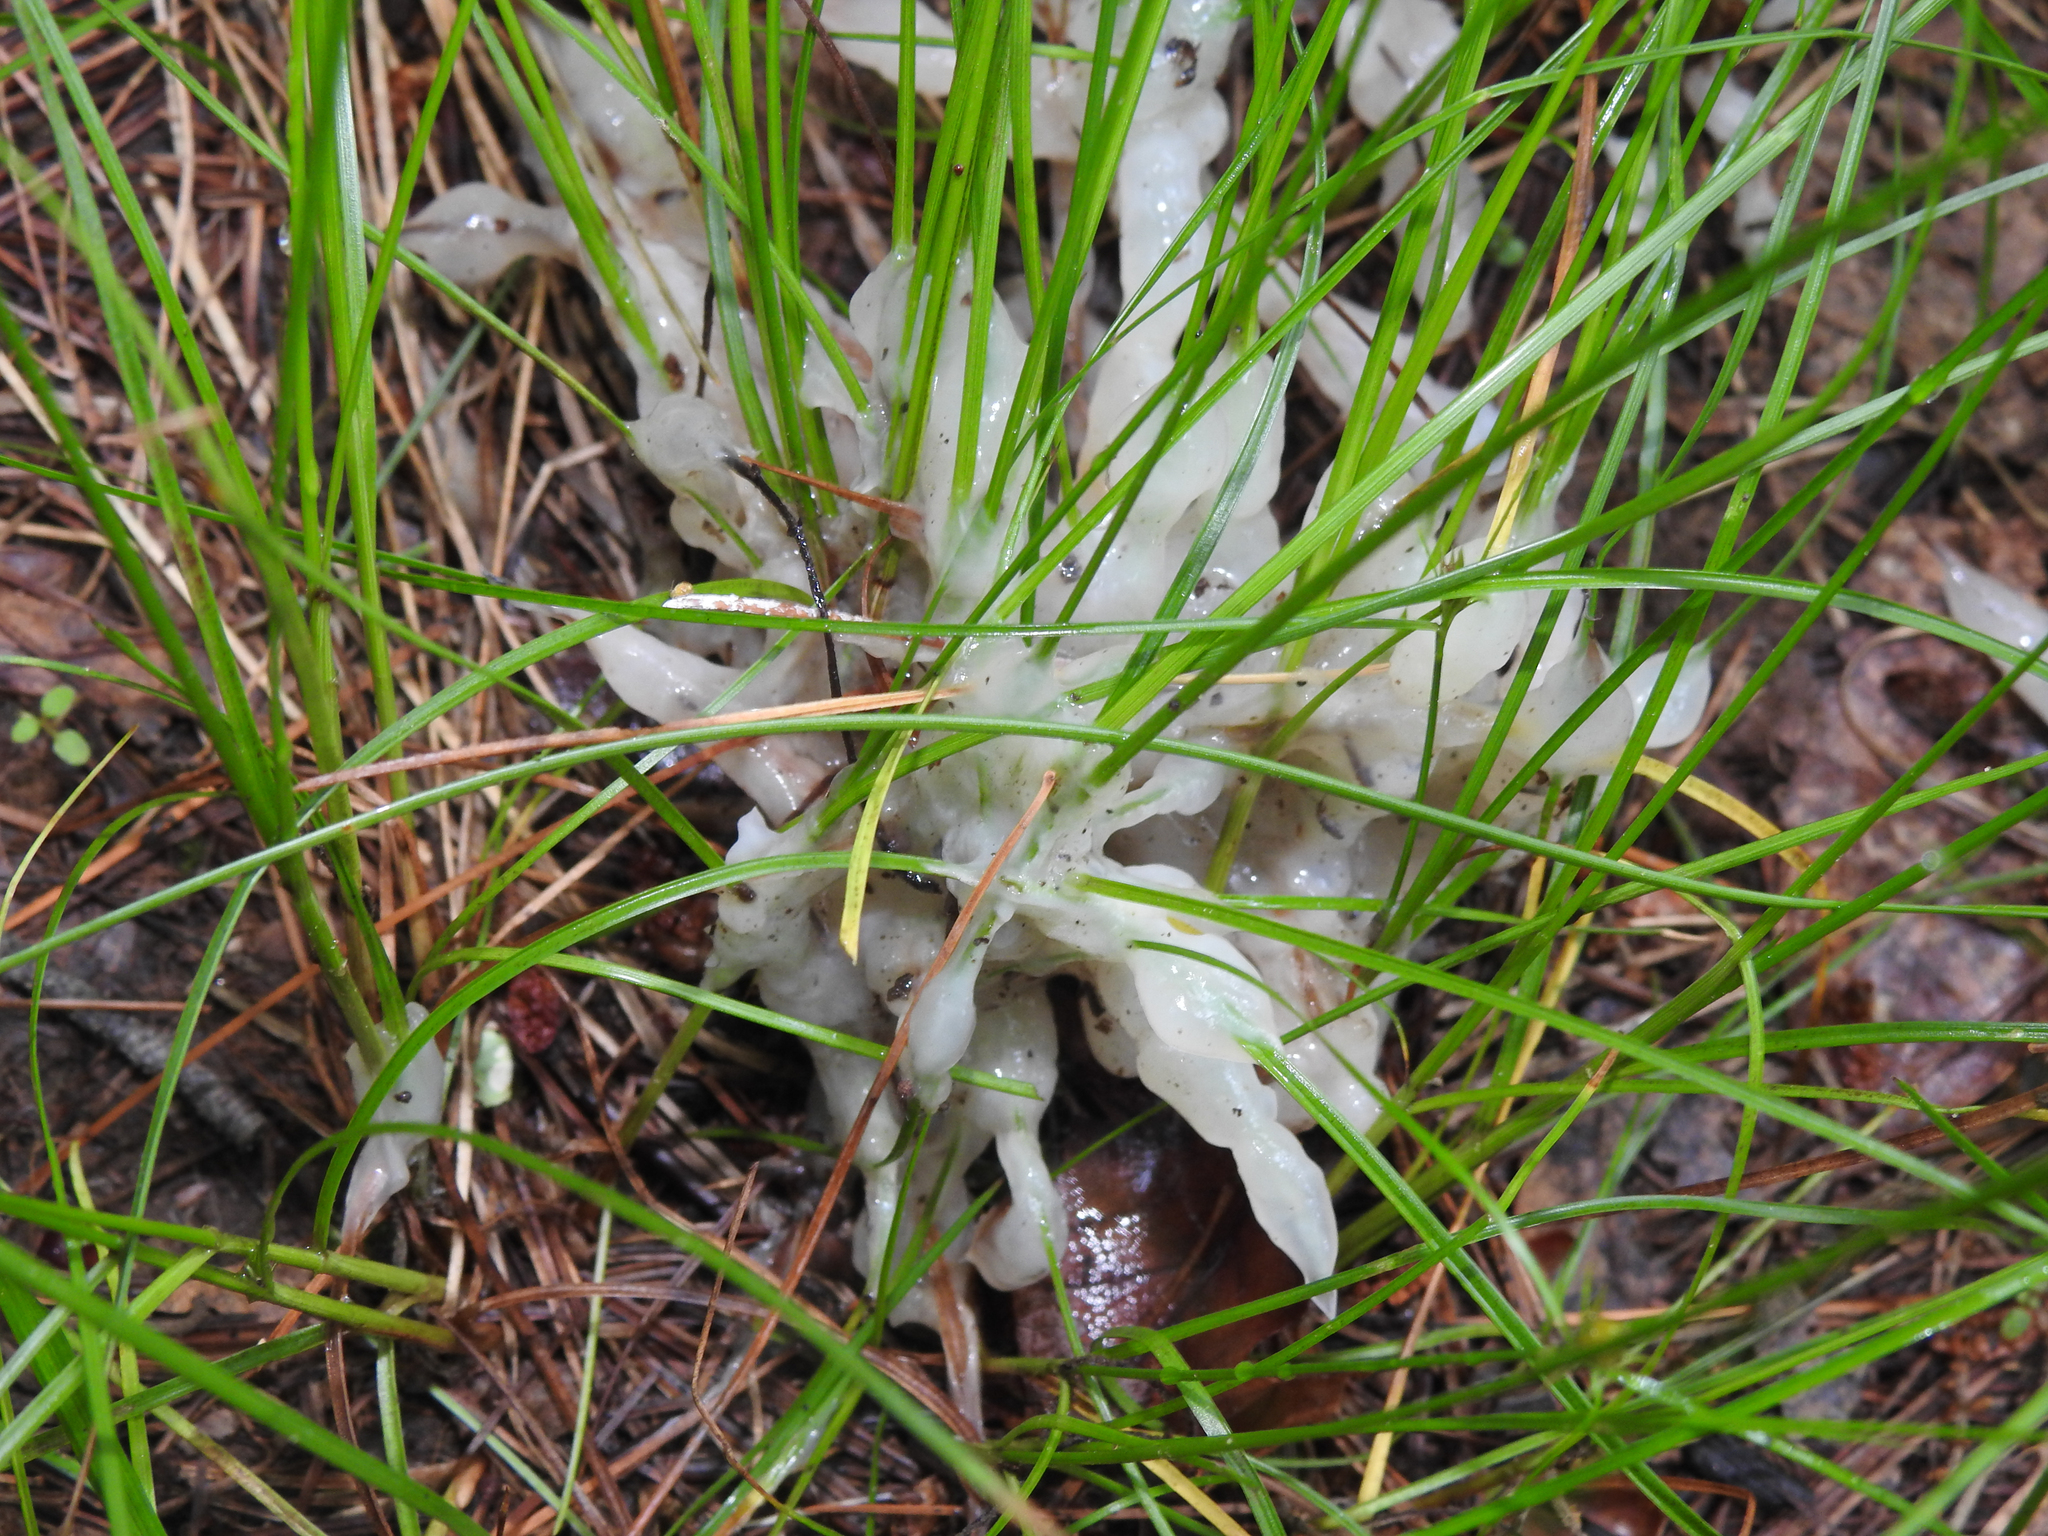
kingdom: Fungi
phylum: Basidiomycota
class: Agaricomycetes
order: Sebacinales
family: Sebacinaceae
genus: Helvellosebacina
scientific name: Helvellosebacina concrescens
